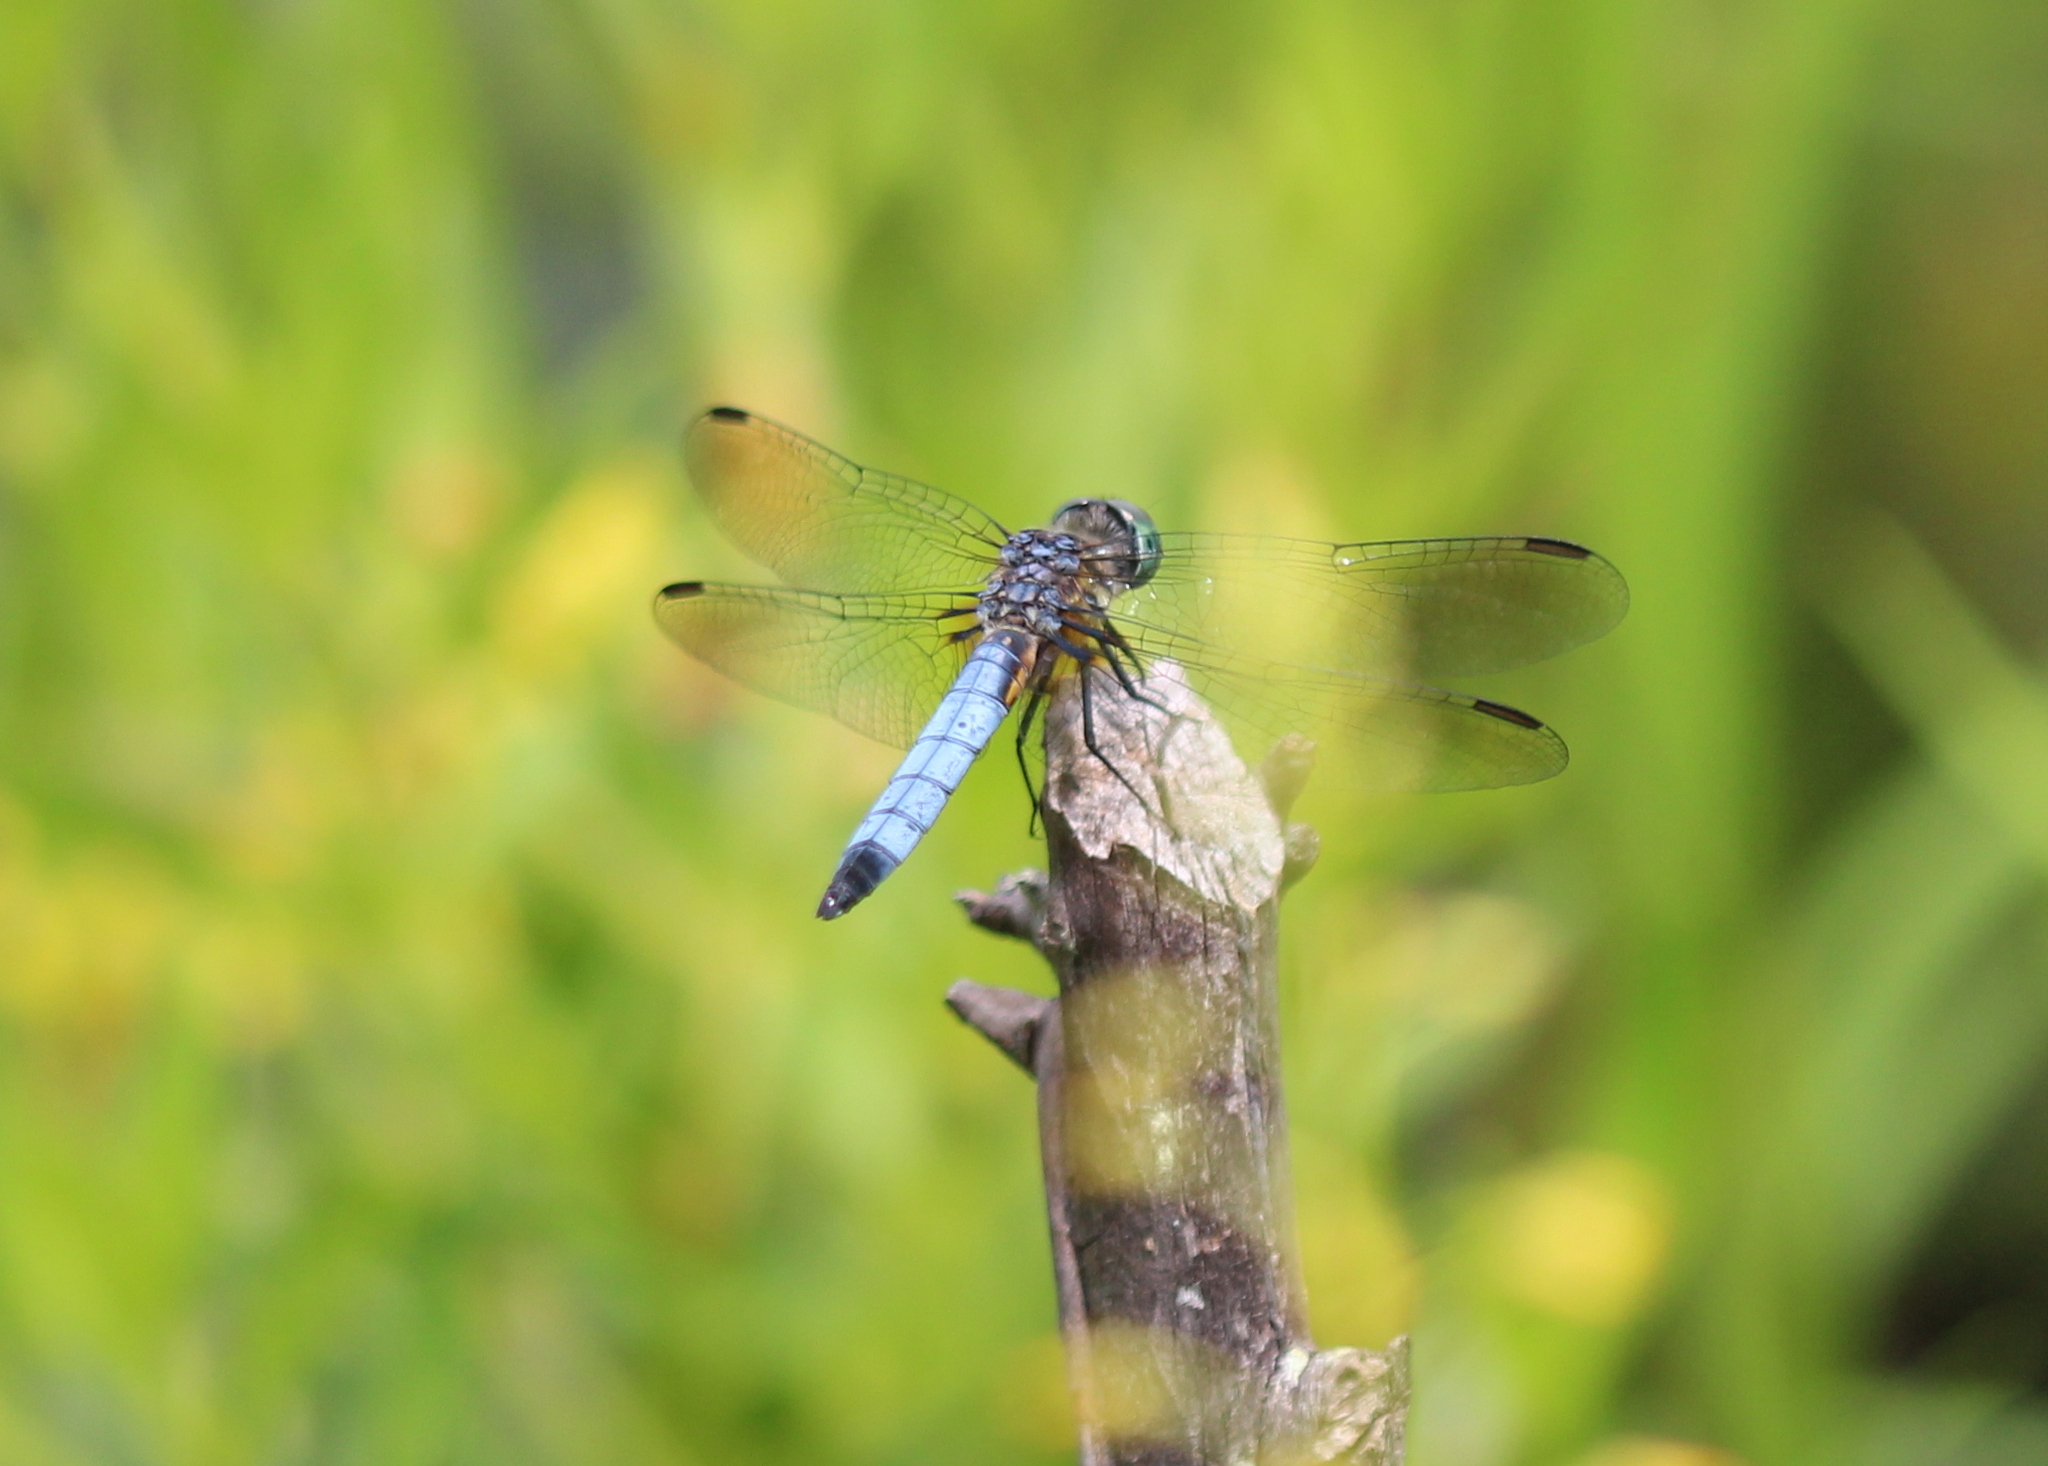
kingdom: Animalia
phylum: Arthropoda
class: Insecta
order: Odonata
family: Libellulidae
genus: Pachydiplax
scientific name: Pachydiplax longipennis
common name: Blue dasher
